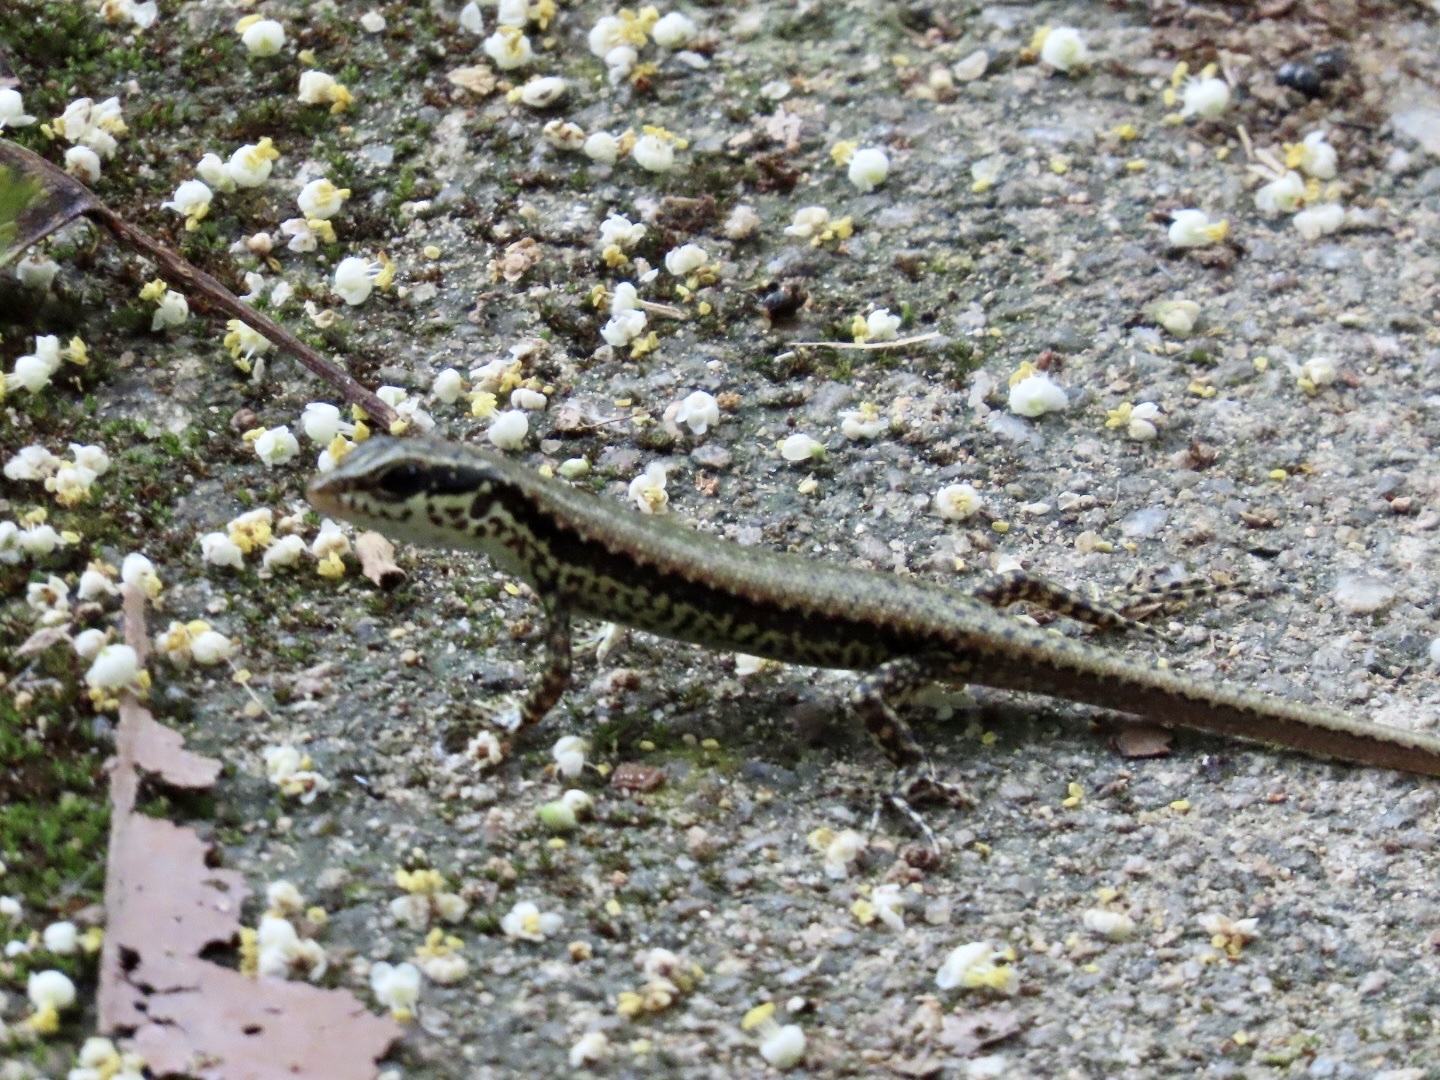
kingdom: Animalia
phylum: Chordata
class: Squamata
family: Scincidae
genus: Sphenomorphus
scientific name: Sphenomorphus incognitus
